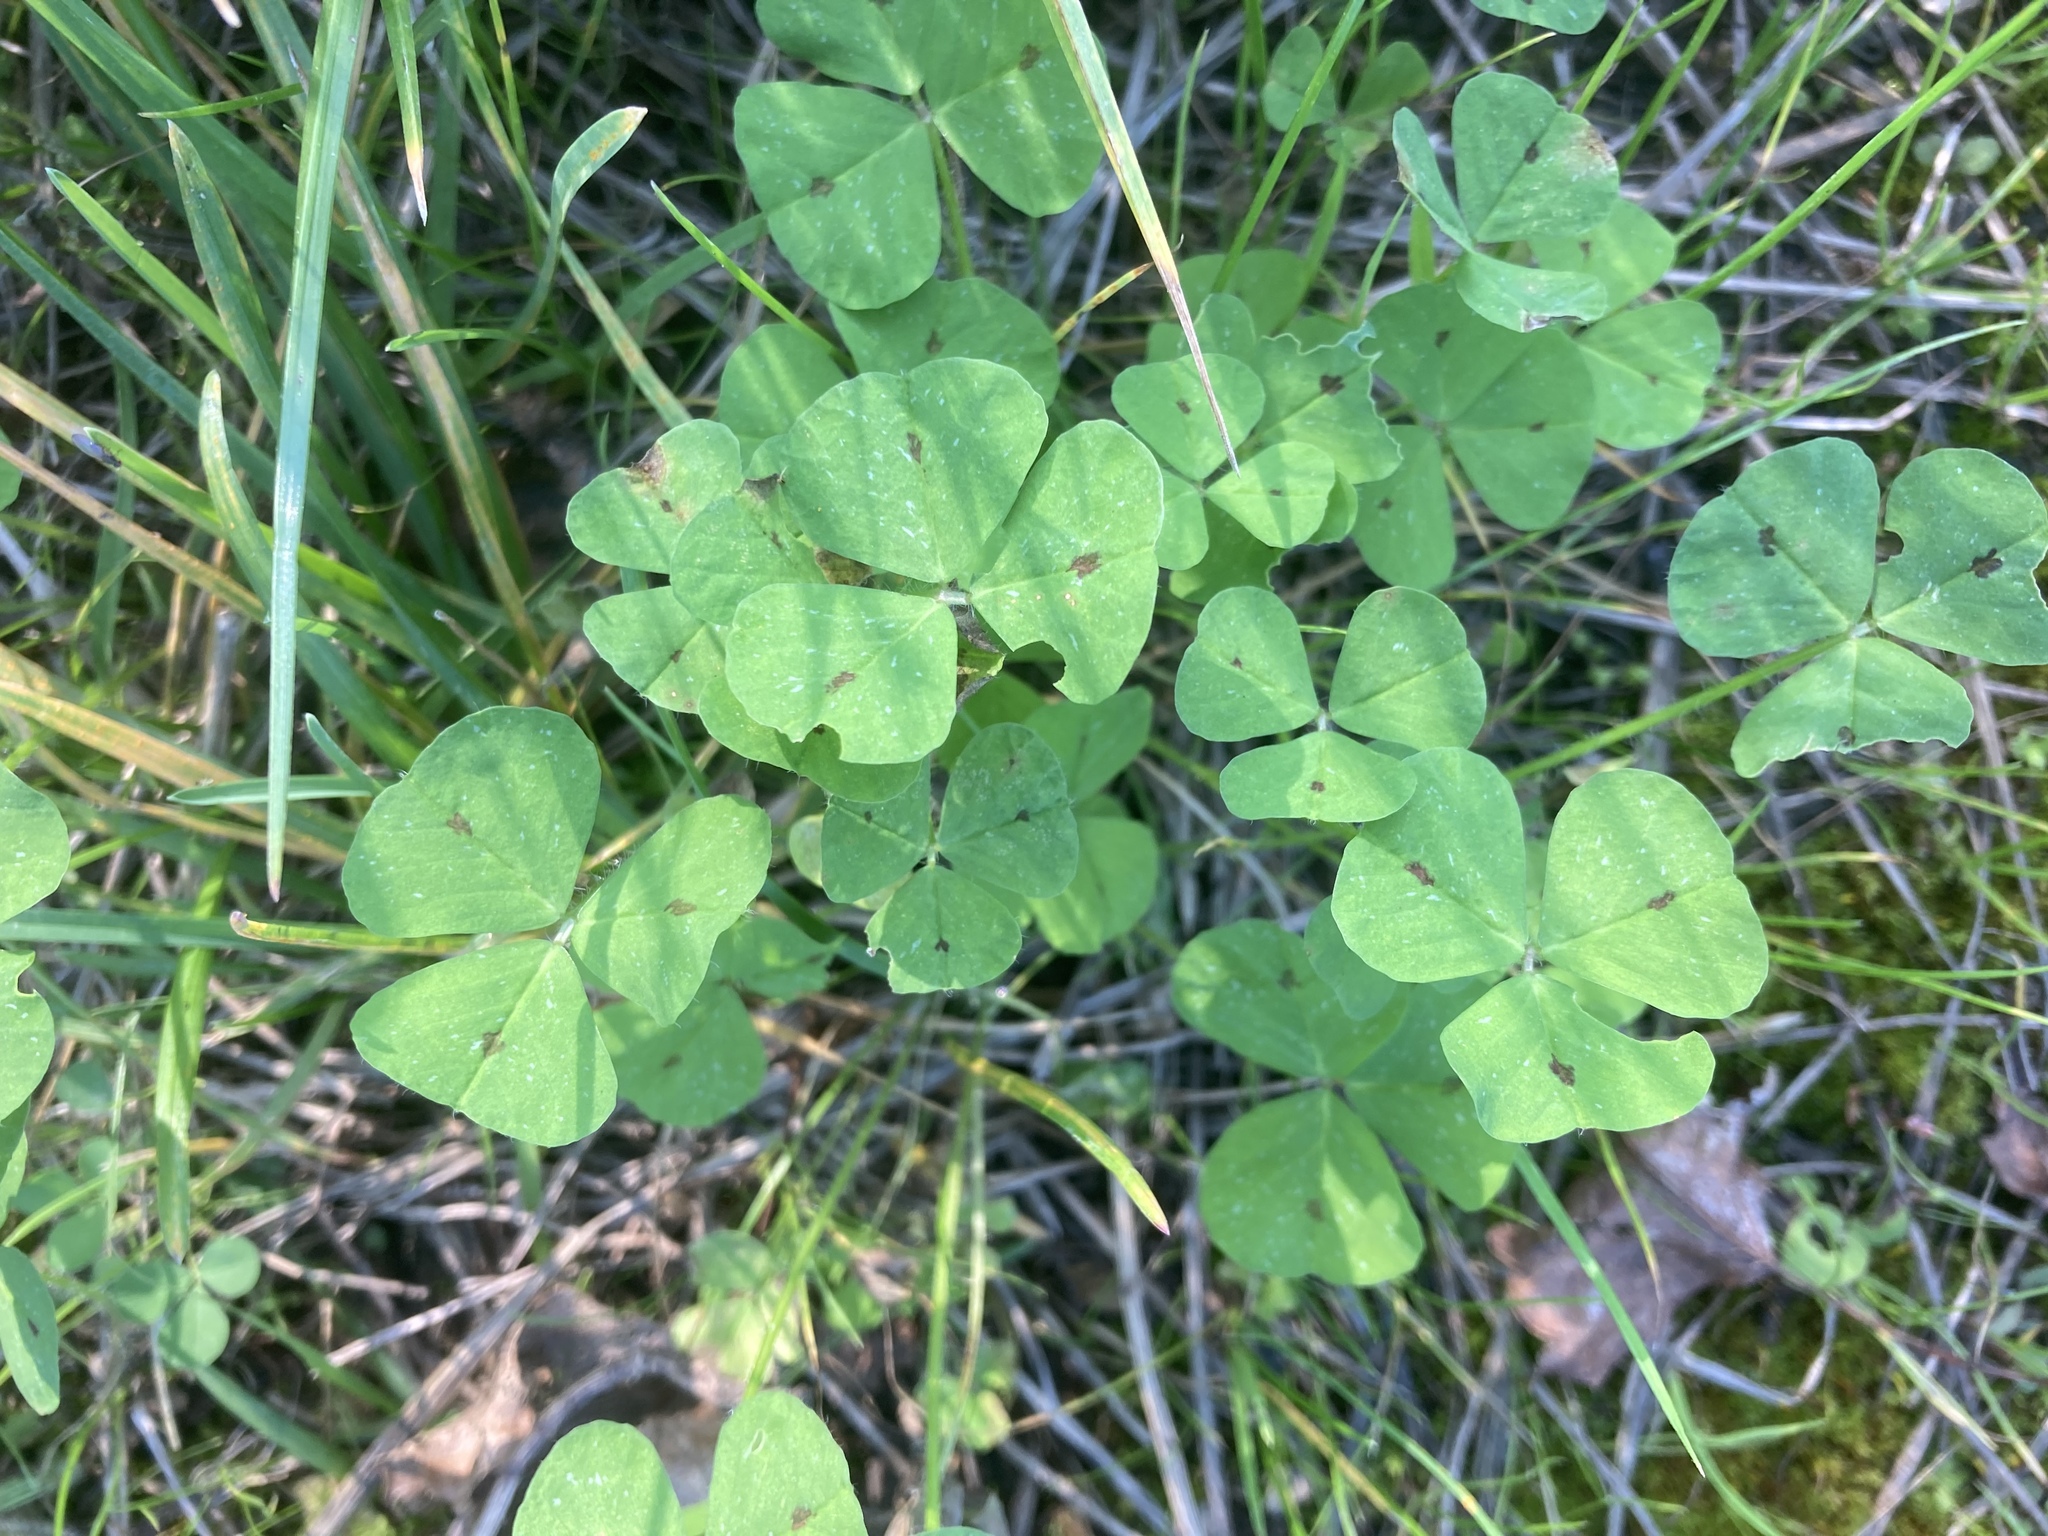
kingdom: Plantae
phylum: Tracheophyta
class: Magnoliopsida
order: Fabales
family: Fabaceae
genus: Medicago
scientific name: Medicago arabica
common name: Spotted medick
